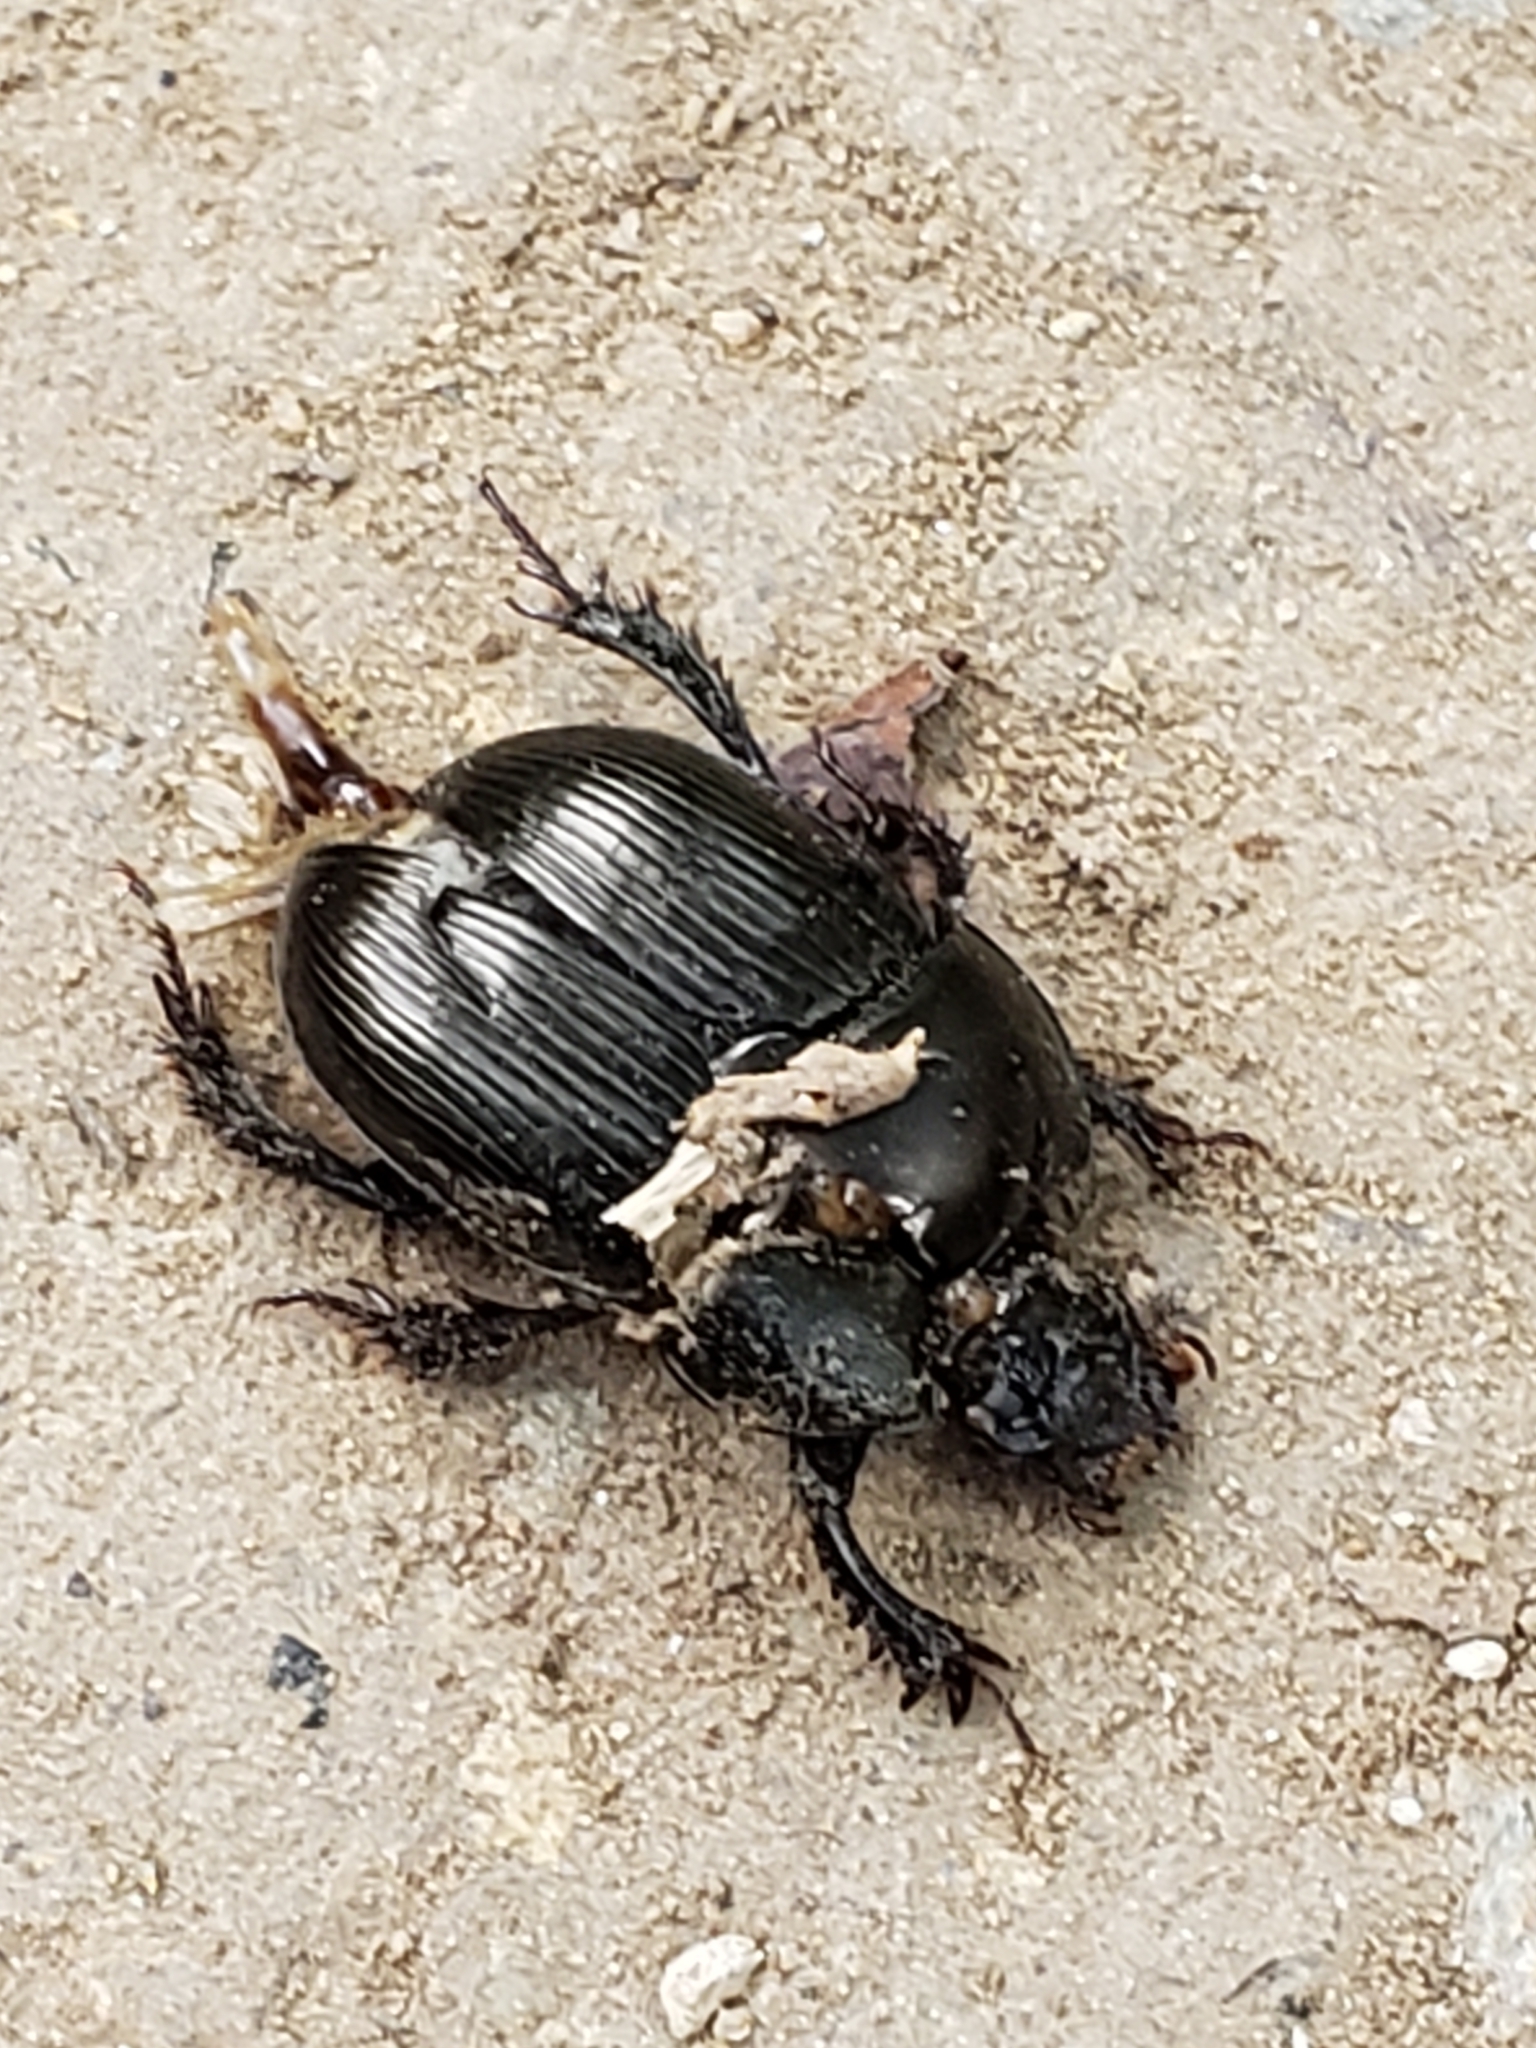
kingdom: Animalia
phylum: Arthropoda
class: Insecta
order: Coleoptera
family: Geotrupidae
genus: Cnemotrupes
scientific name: Cnemotrupes semiopacus
